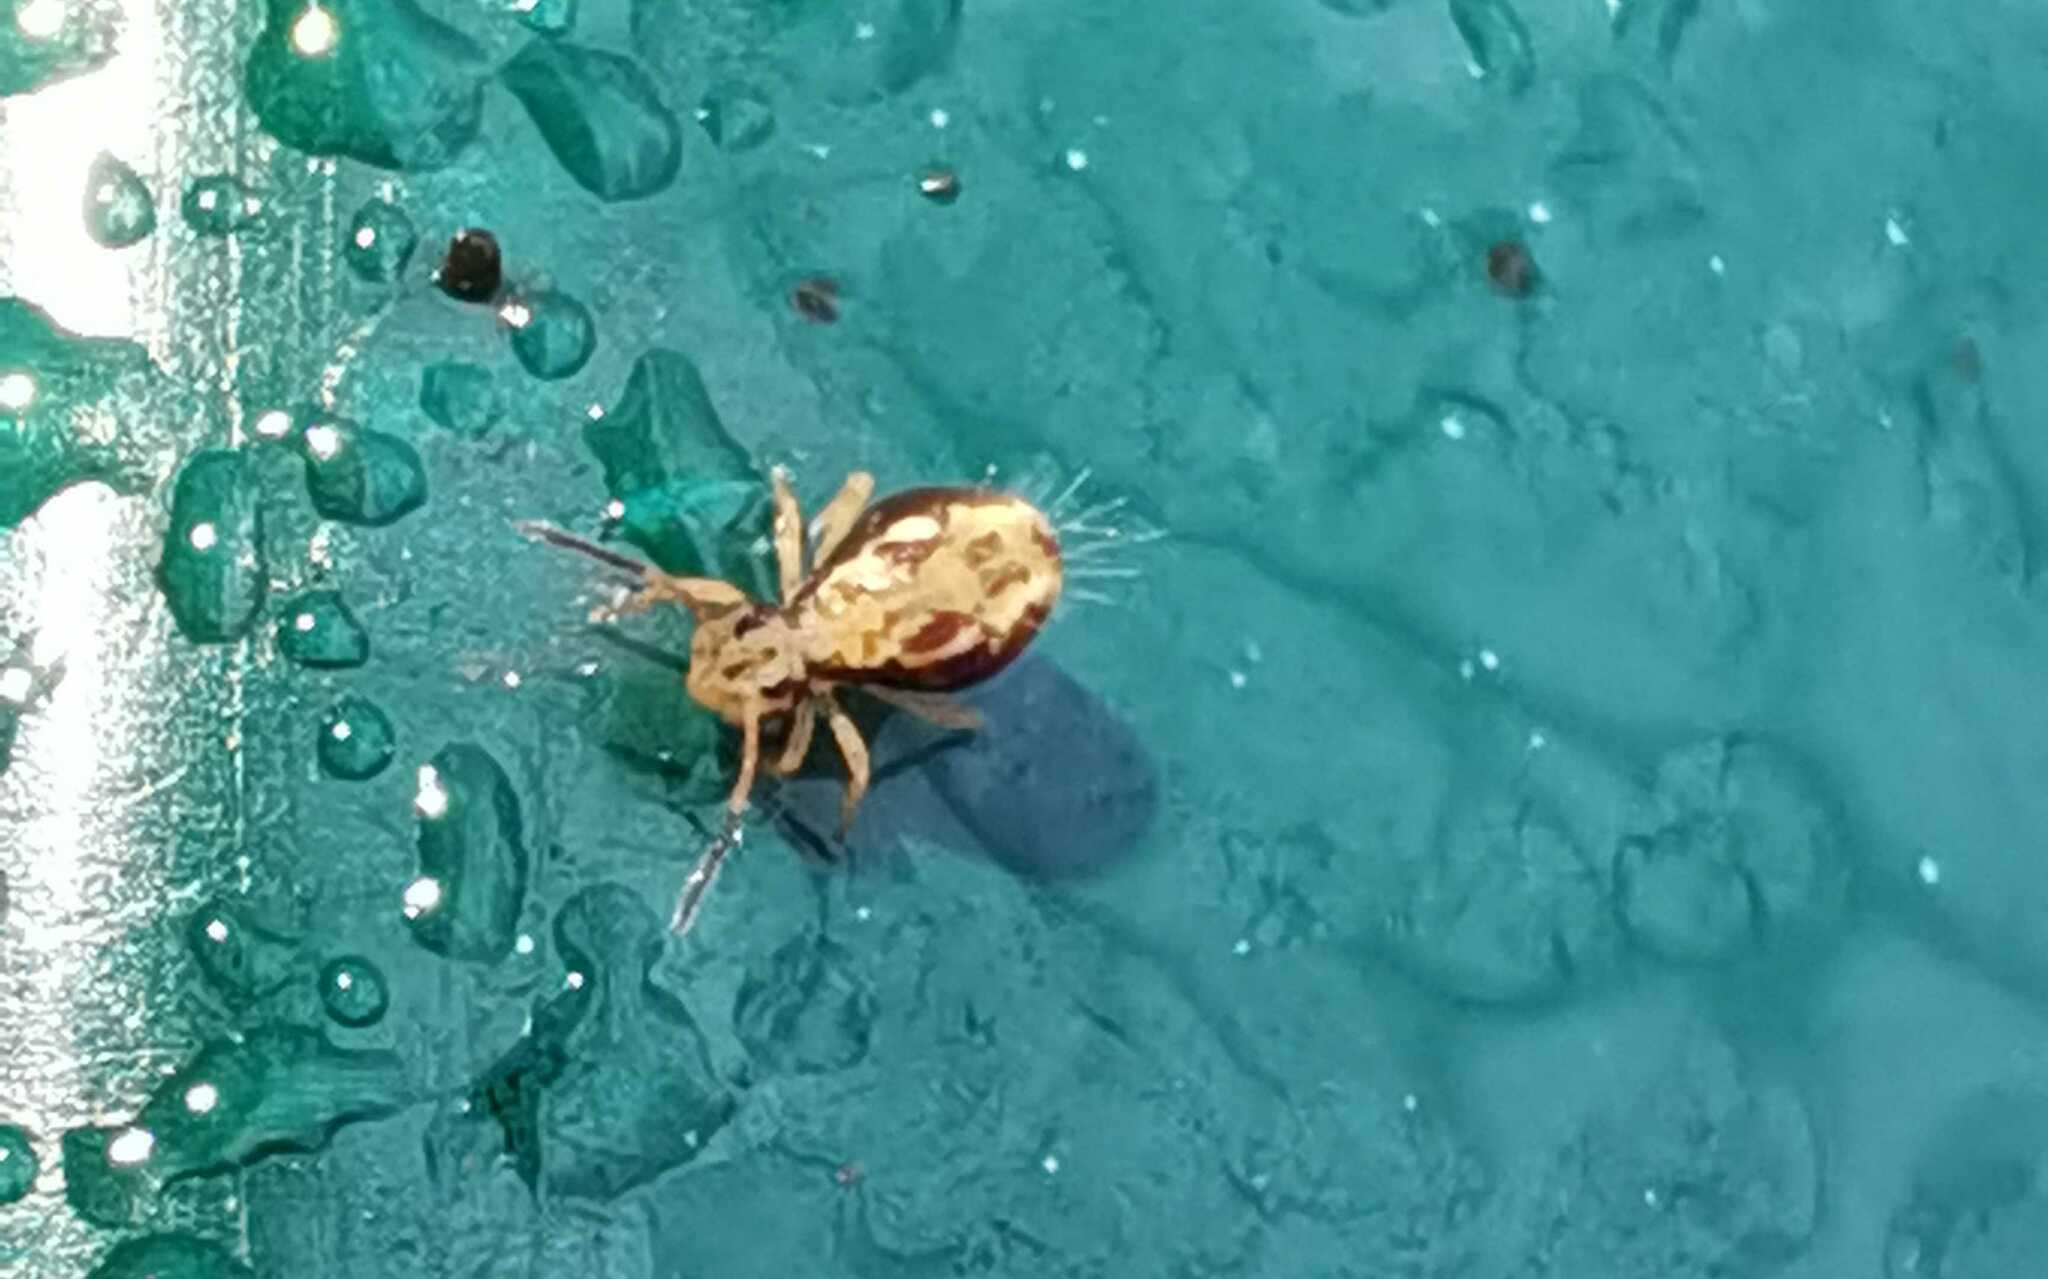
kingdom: Animalia
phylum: Arthropoda
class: Collembola
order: Symphypleona
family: Dicyrtomidae
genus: Dicyrtomina
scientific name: Dicyrtomina saundersi
